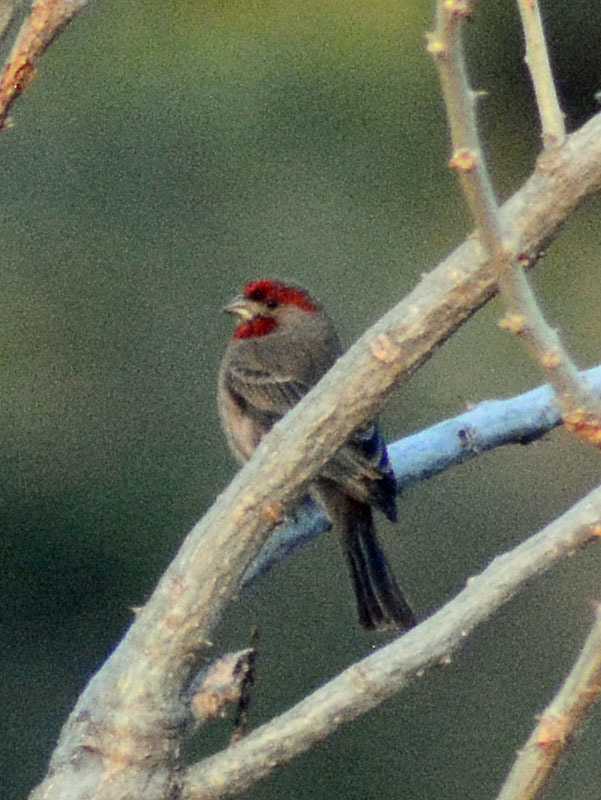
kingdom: Animalia
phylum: Chordata
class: Aves
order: Passeriformes
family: Fringillidae
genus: Haemorhous
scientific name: Haemorhous mexicanus
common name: House finch
